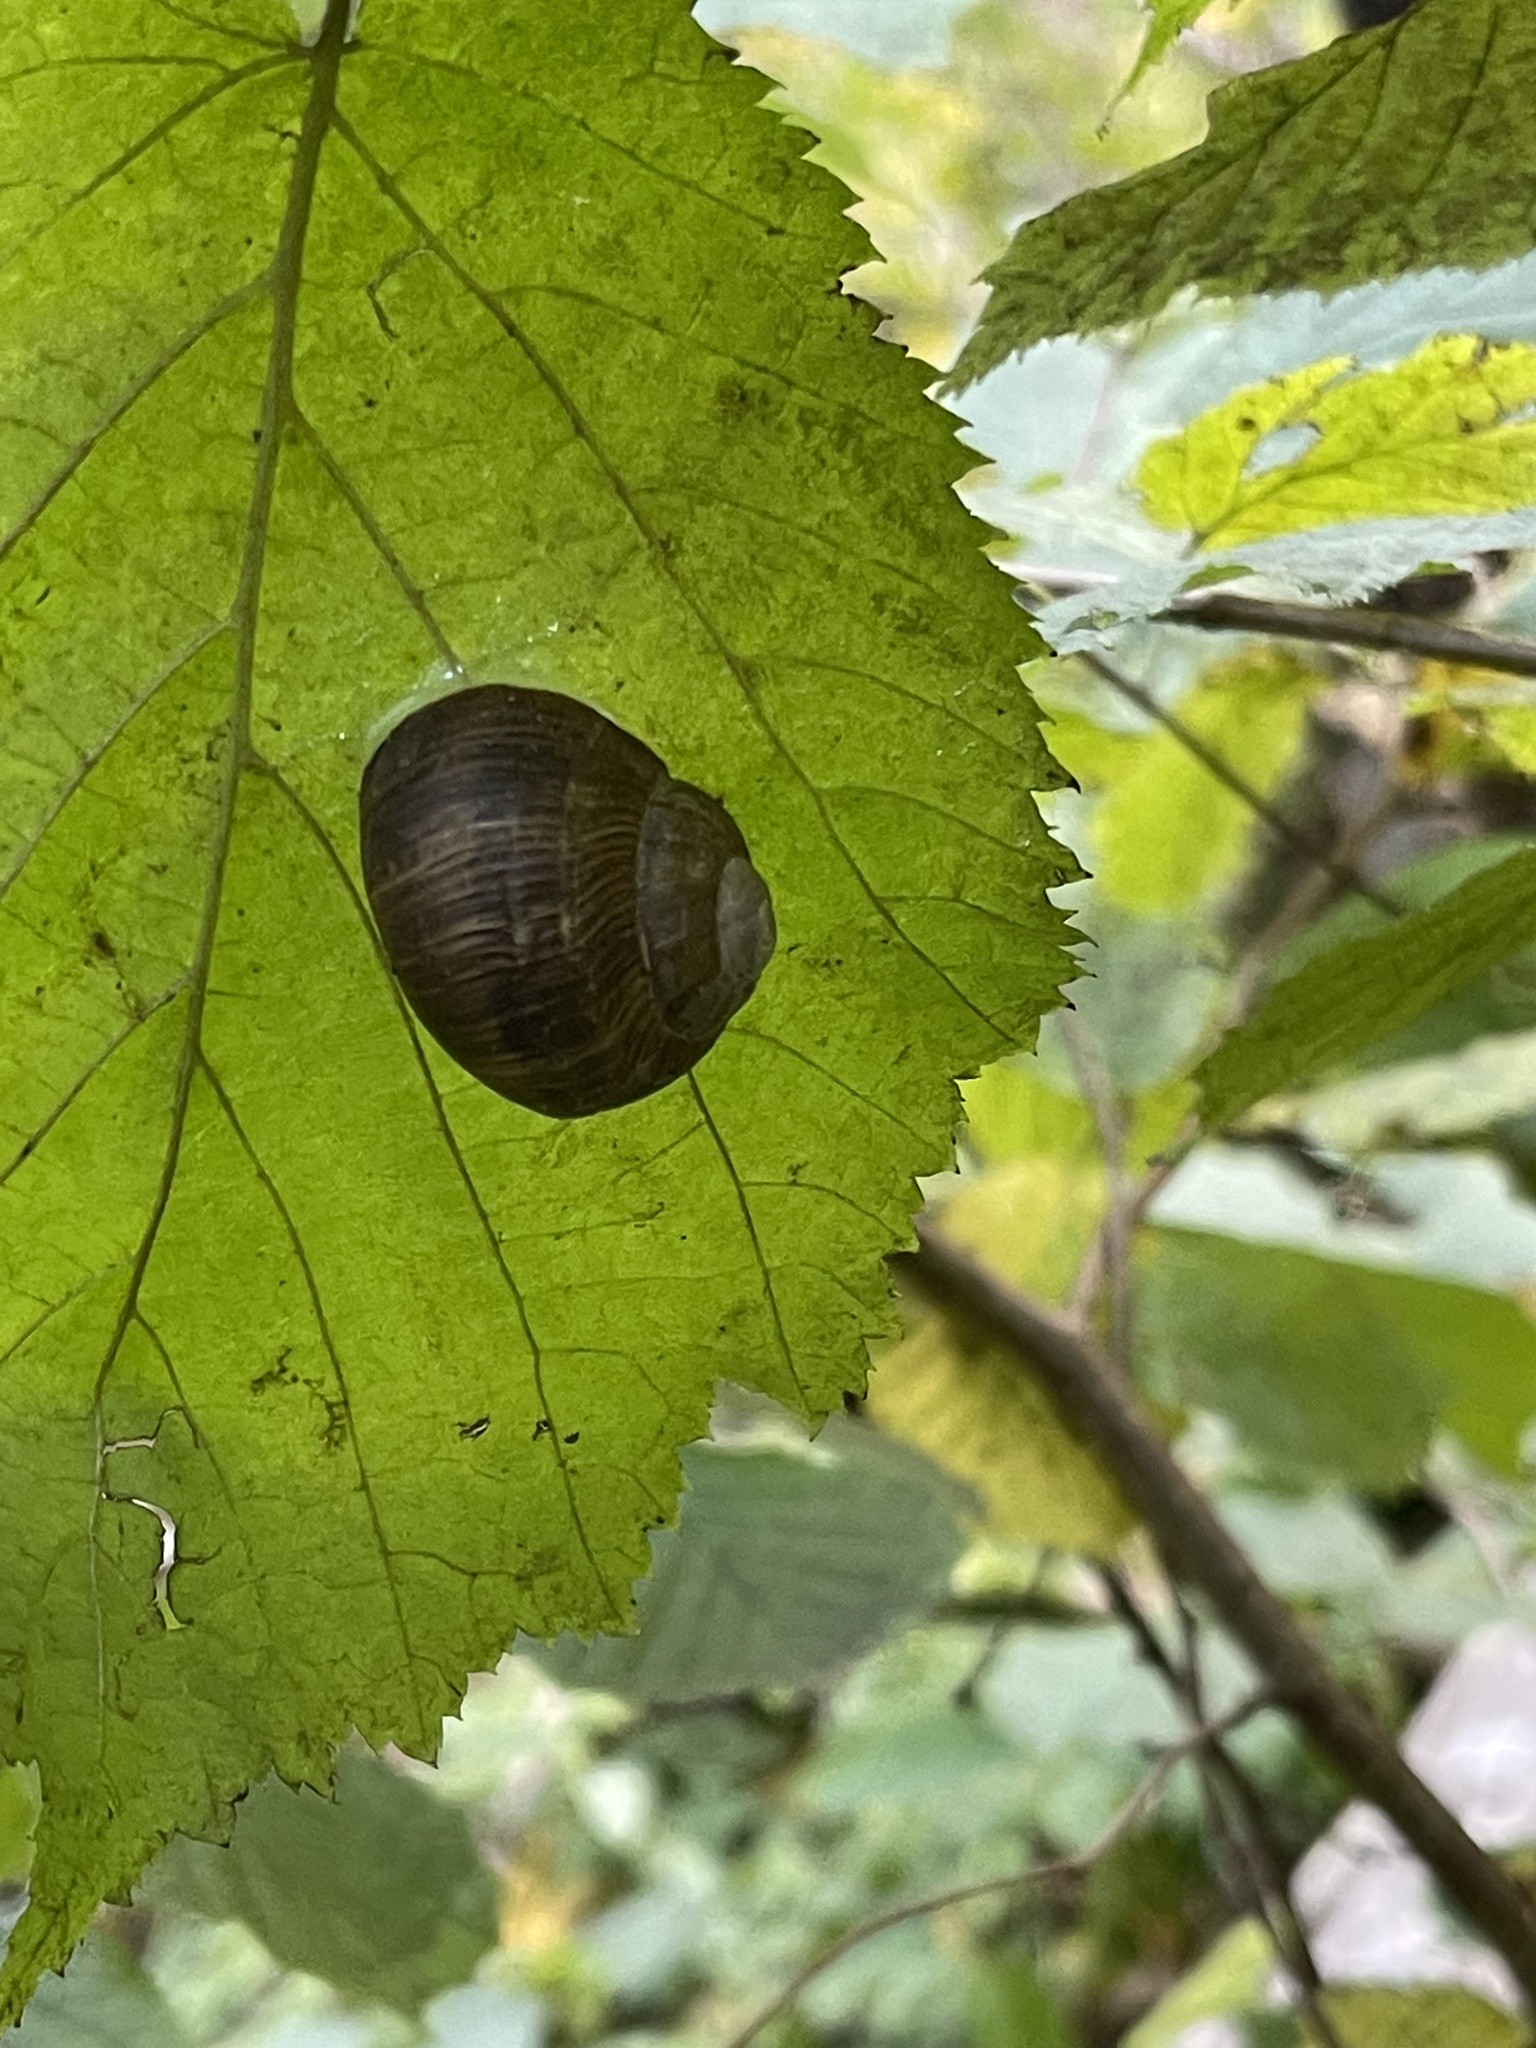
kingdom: Animalia
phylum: Mollusca
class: Gastropoda
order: Stylommatophora
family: Helicidae
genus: Helix
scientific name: Helix pomatia
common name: Roman snail
